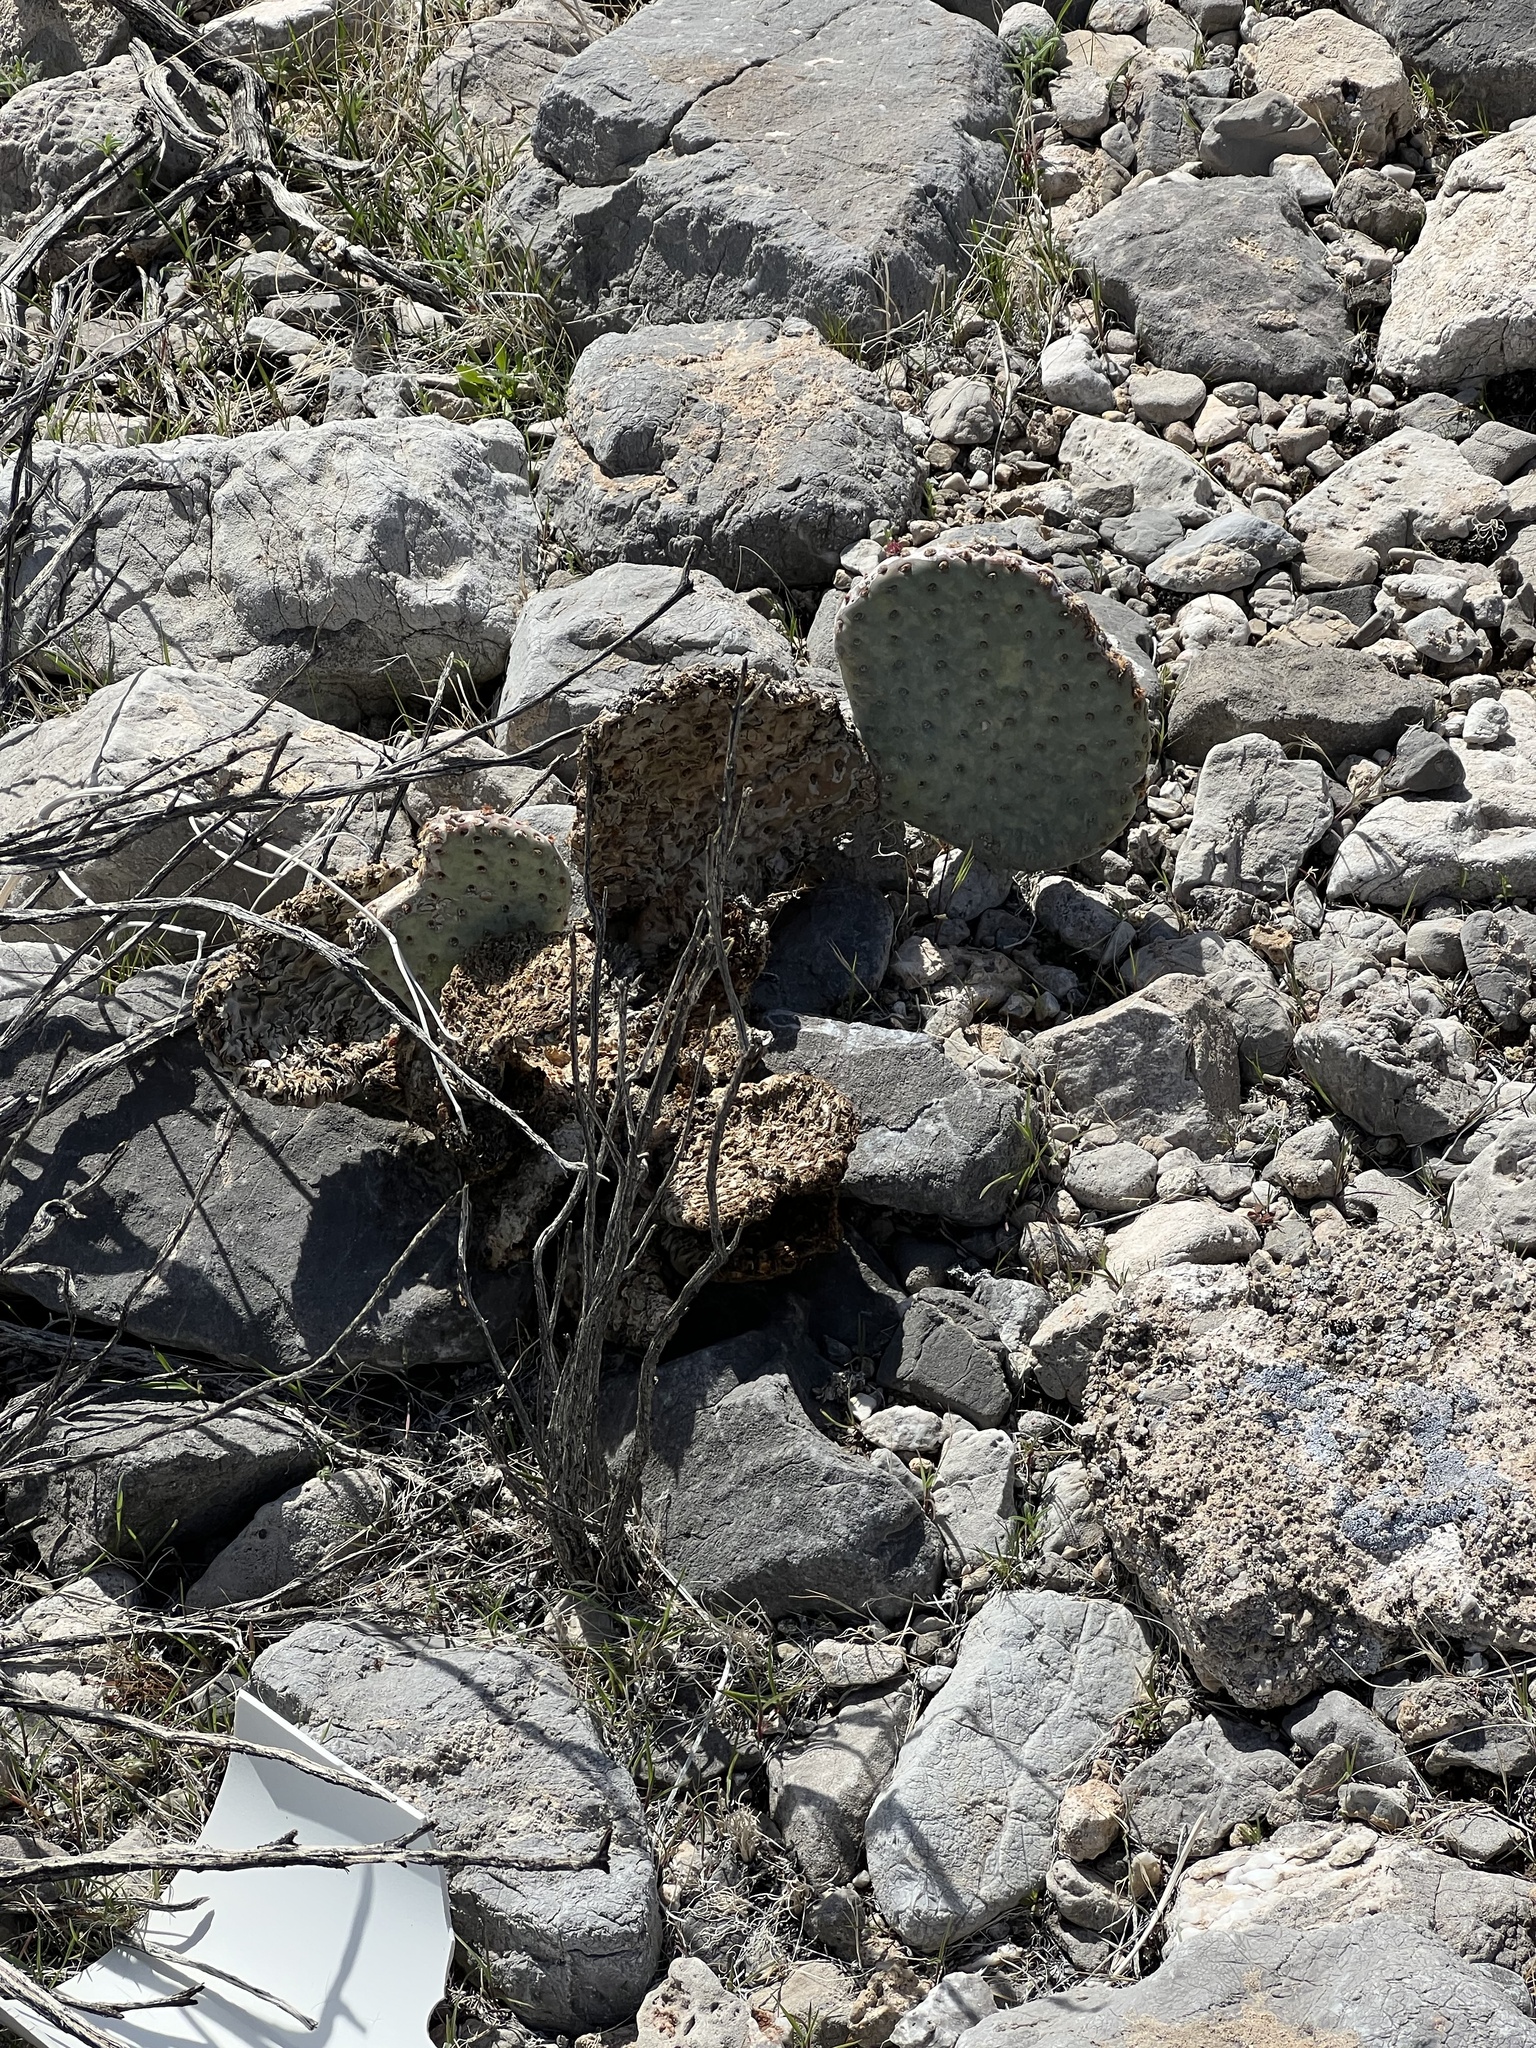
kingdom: Plantae
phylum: Tracheophyta
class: Magnoliopsida
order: Caryophyllales
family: Cactaceae
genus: Opuntia
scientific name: Opuntia basilaris
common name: Beavertail prickly-pear
